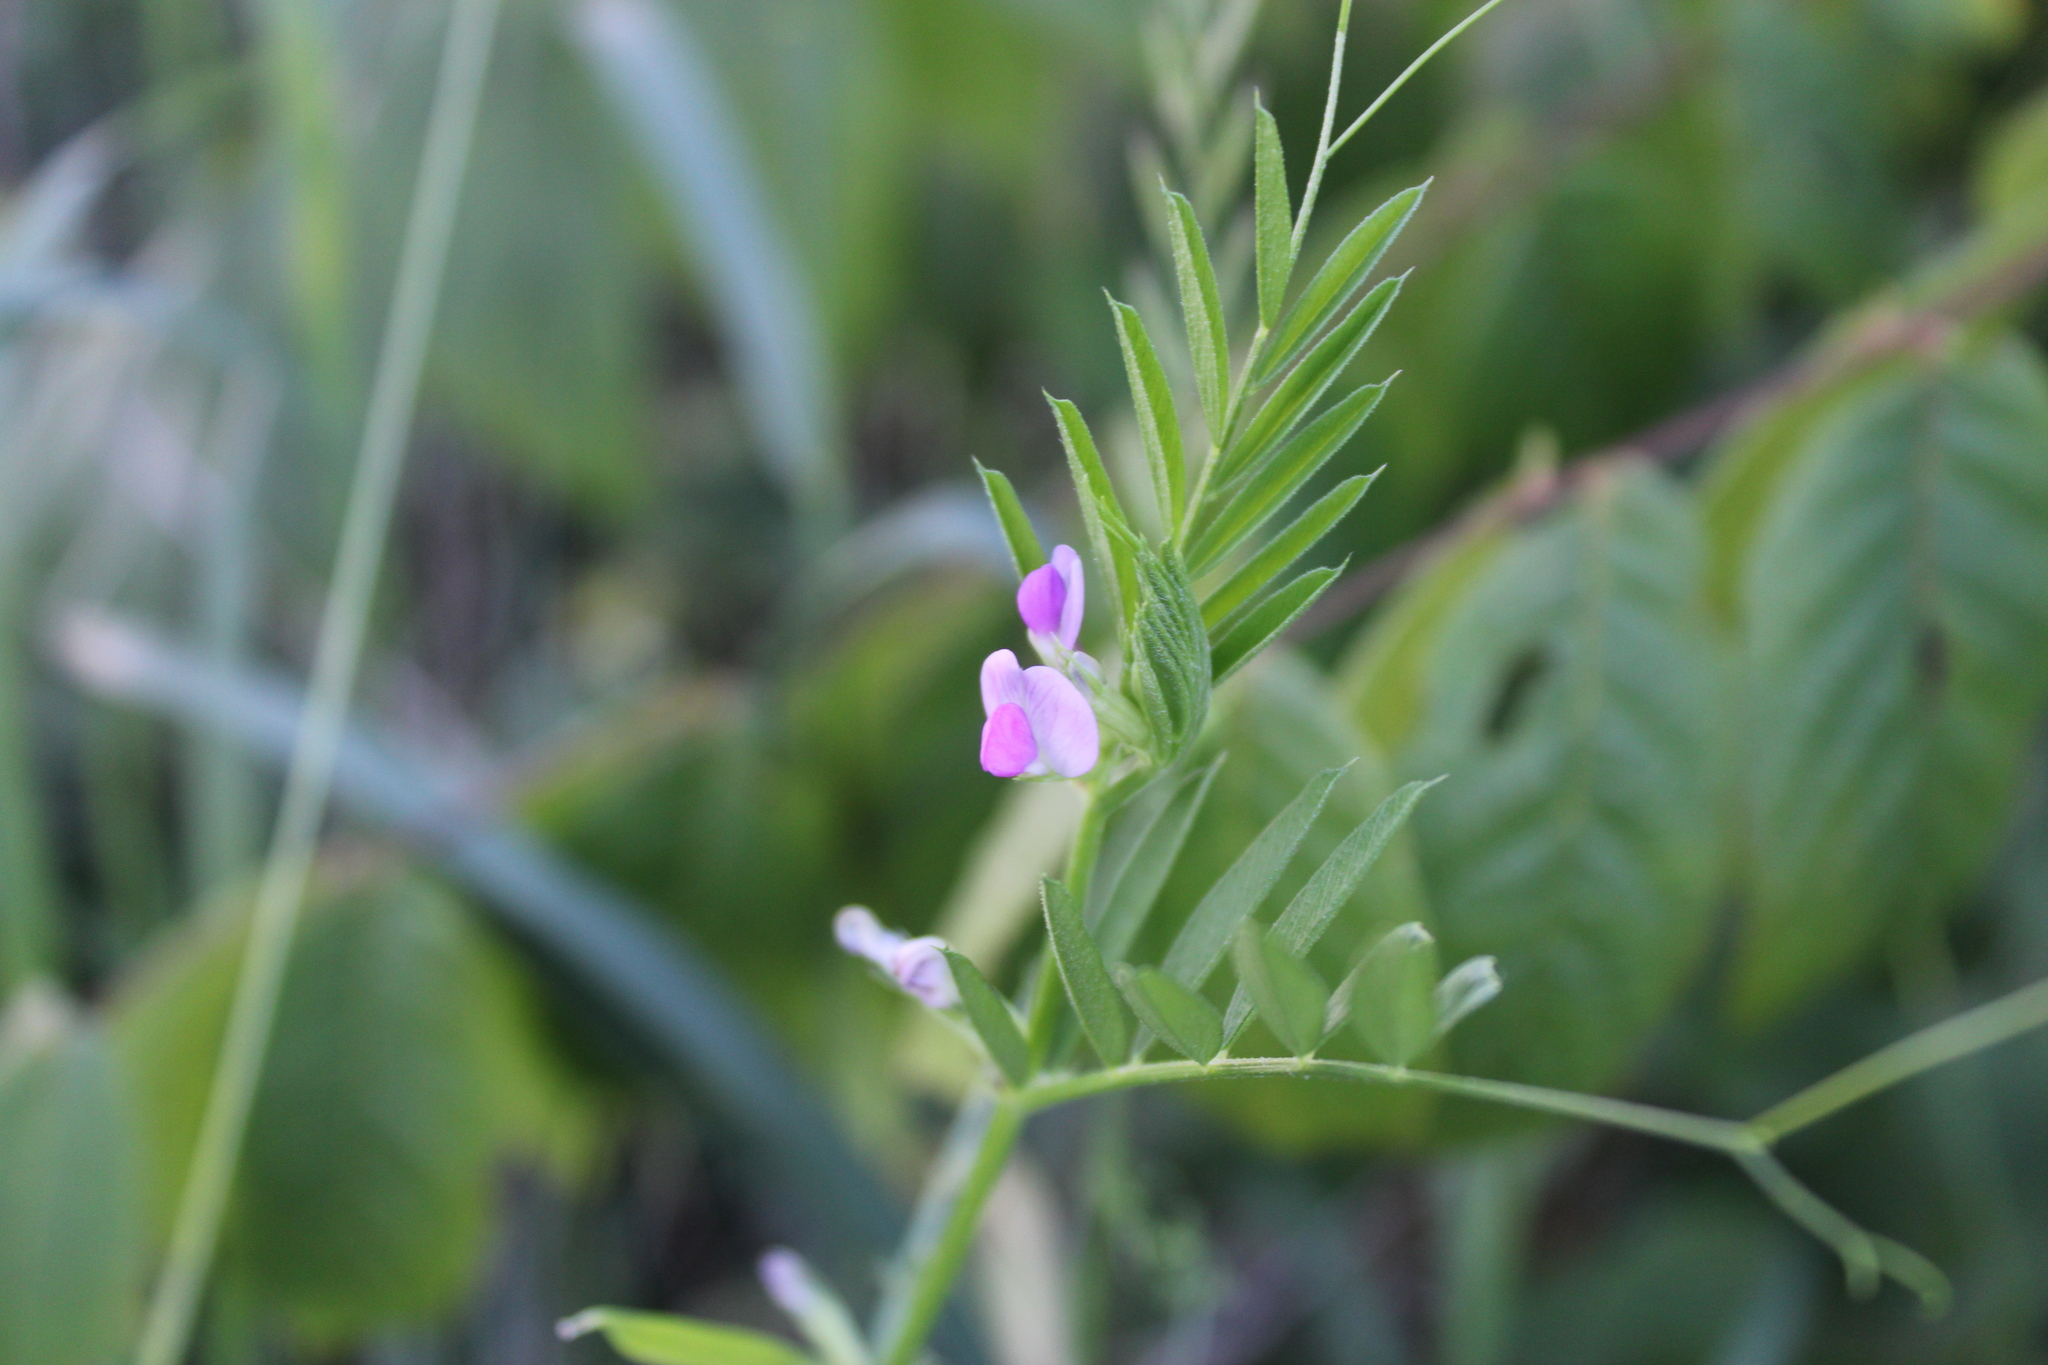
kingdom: Plantae
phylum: Tracheophyta
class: Magnoliopsida
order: Fabales
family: Fabaceae
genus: Vicia
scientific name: Vicia sativa
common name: Garden vetch
